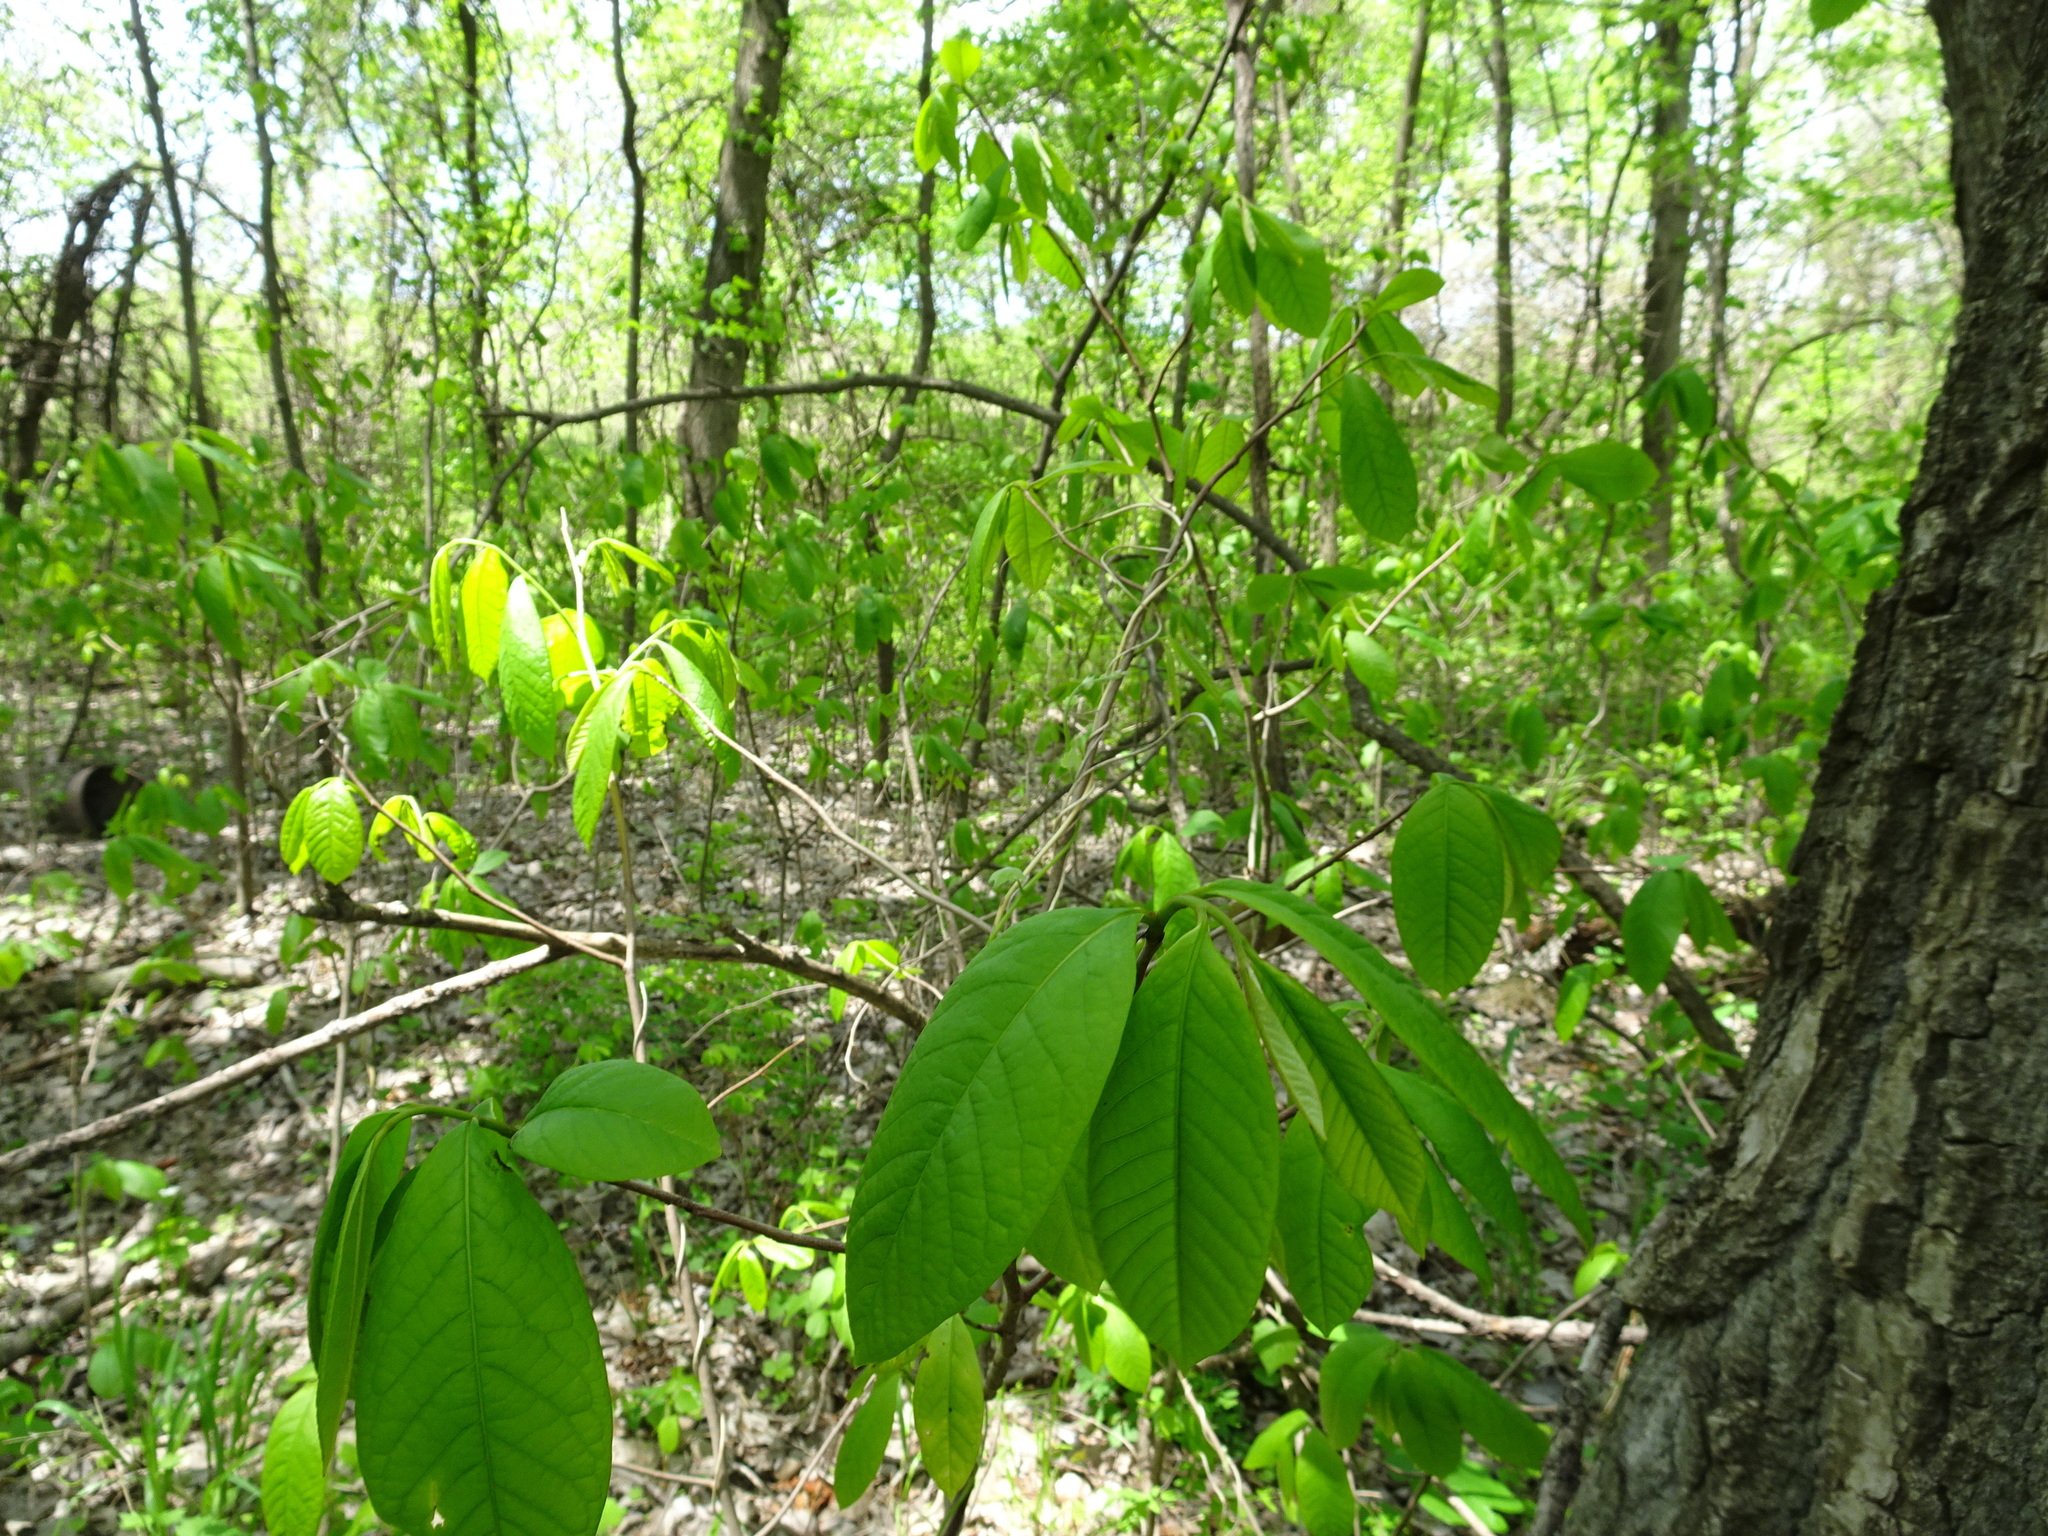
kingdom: Plantae
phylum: Tracheophyta
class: Magnoliopsida
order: Magnoliales
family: Annonaceae
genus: Asimina
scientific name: Asimina triloba
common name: Dog-banana
